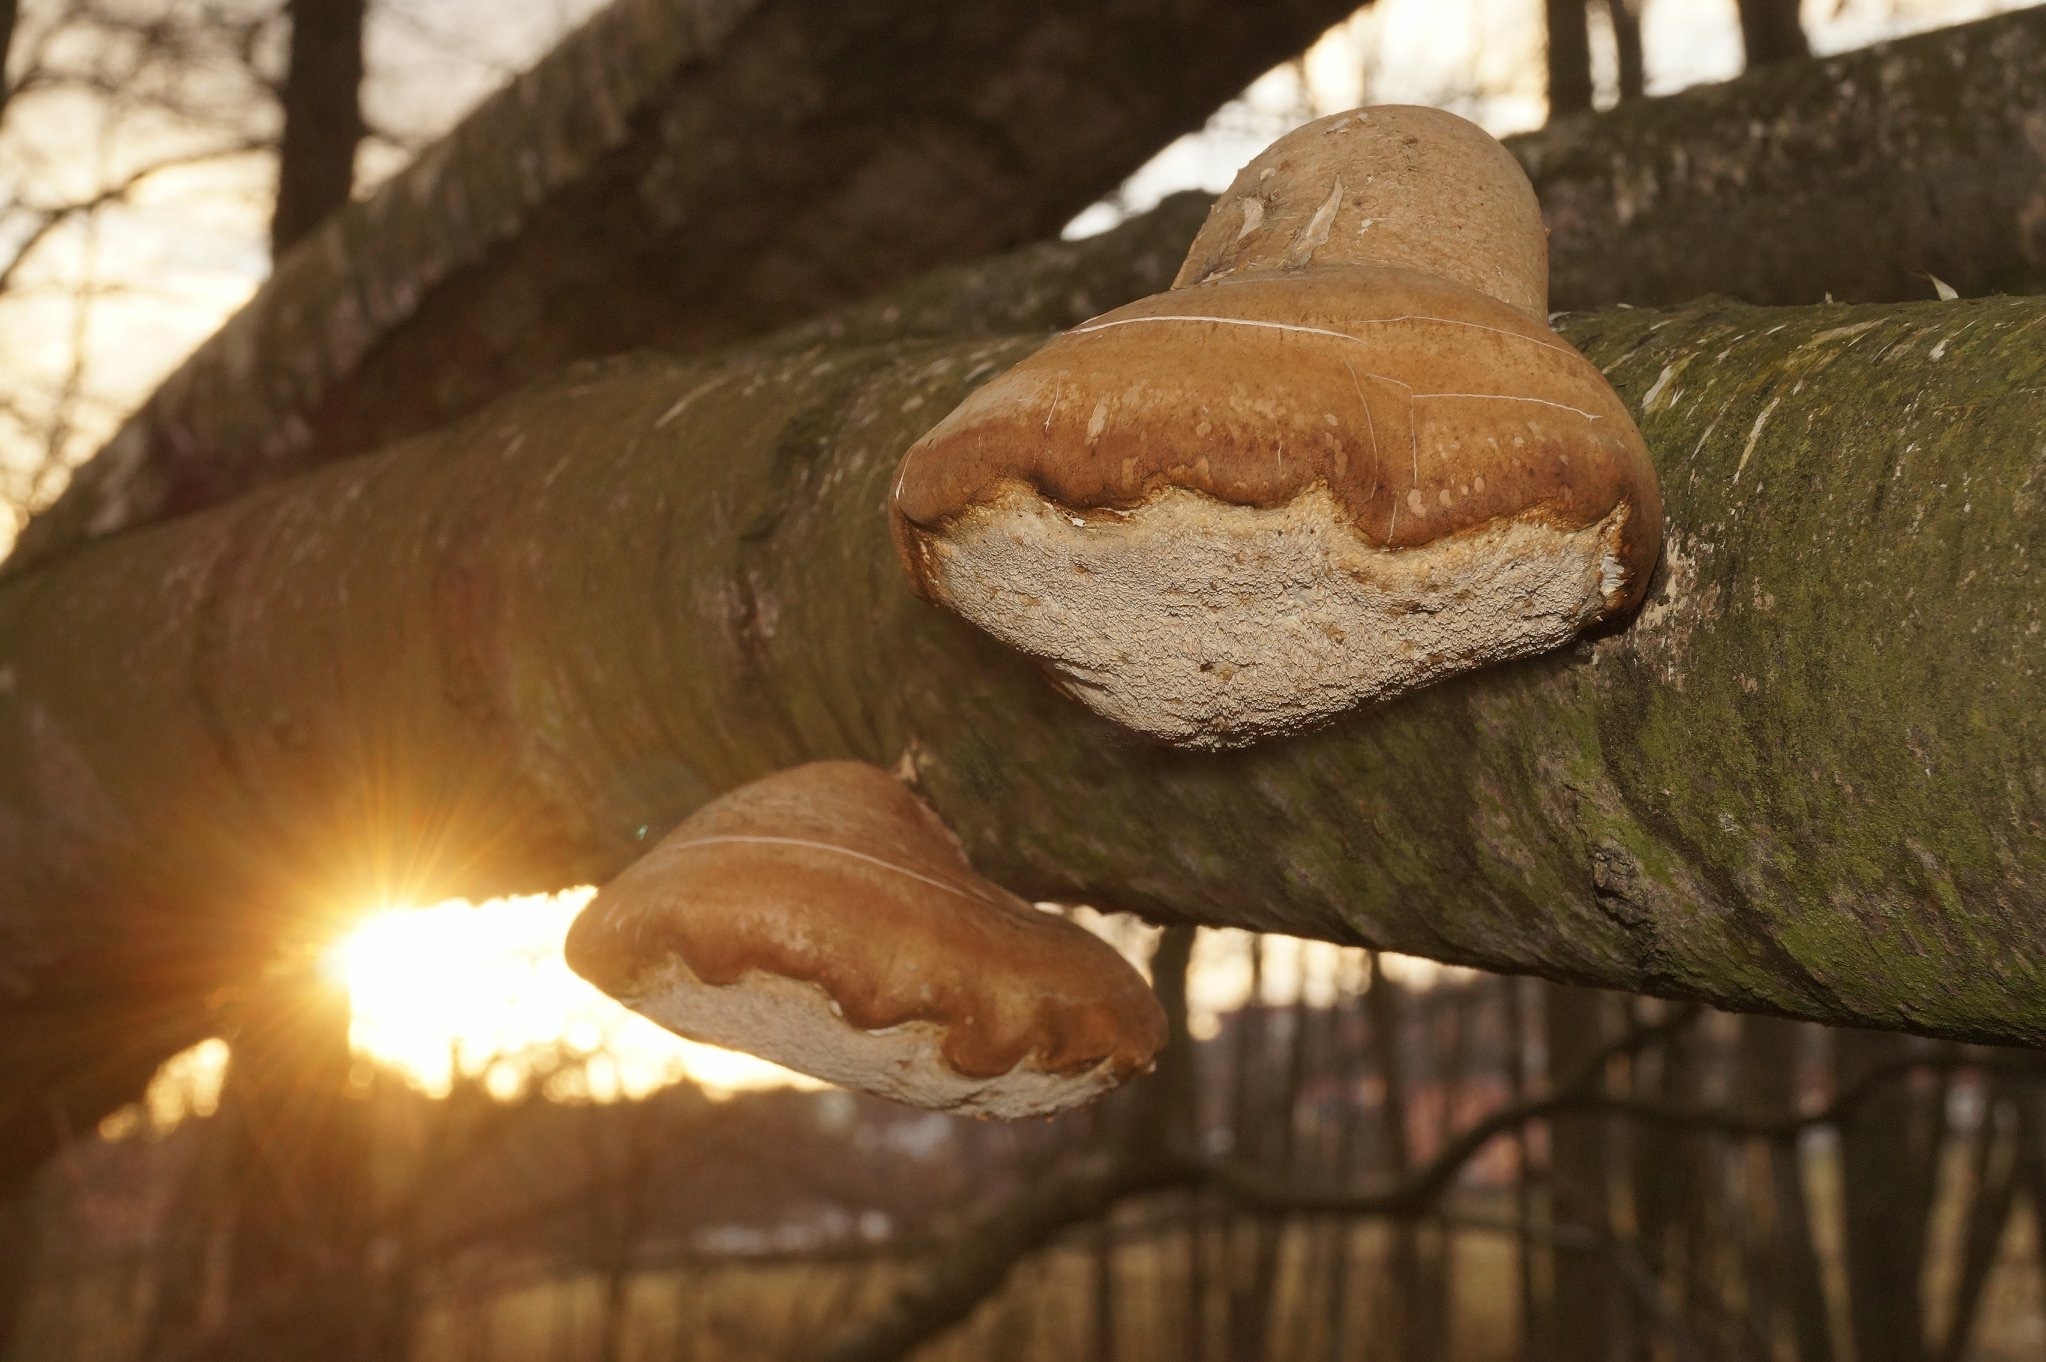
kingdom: Fungi
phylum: Basidiomycota
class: Agaricomycetes
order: Polyporales
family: Fomitopsidaceae
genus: Fomitopsis
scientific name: Fomitopsis betulina
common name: Birch polypore
